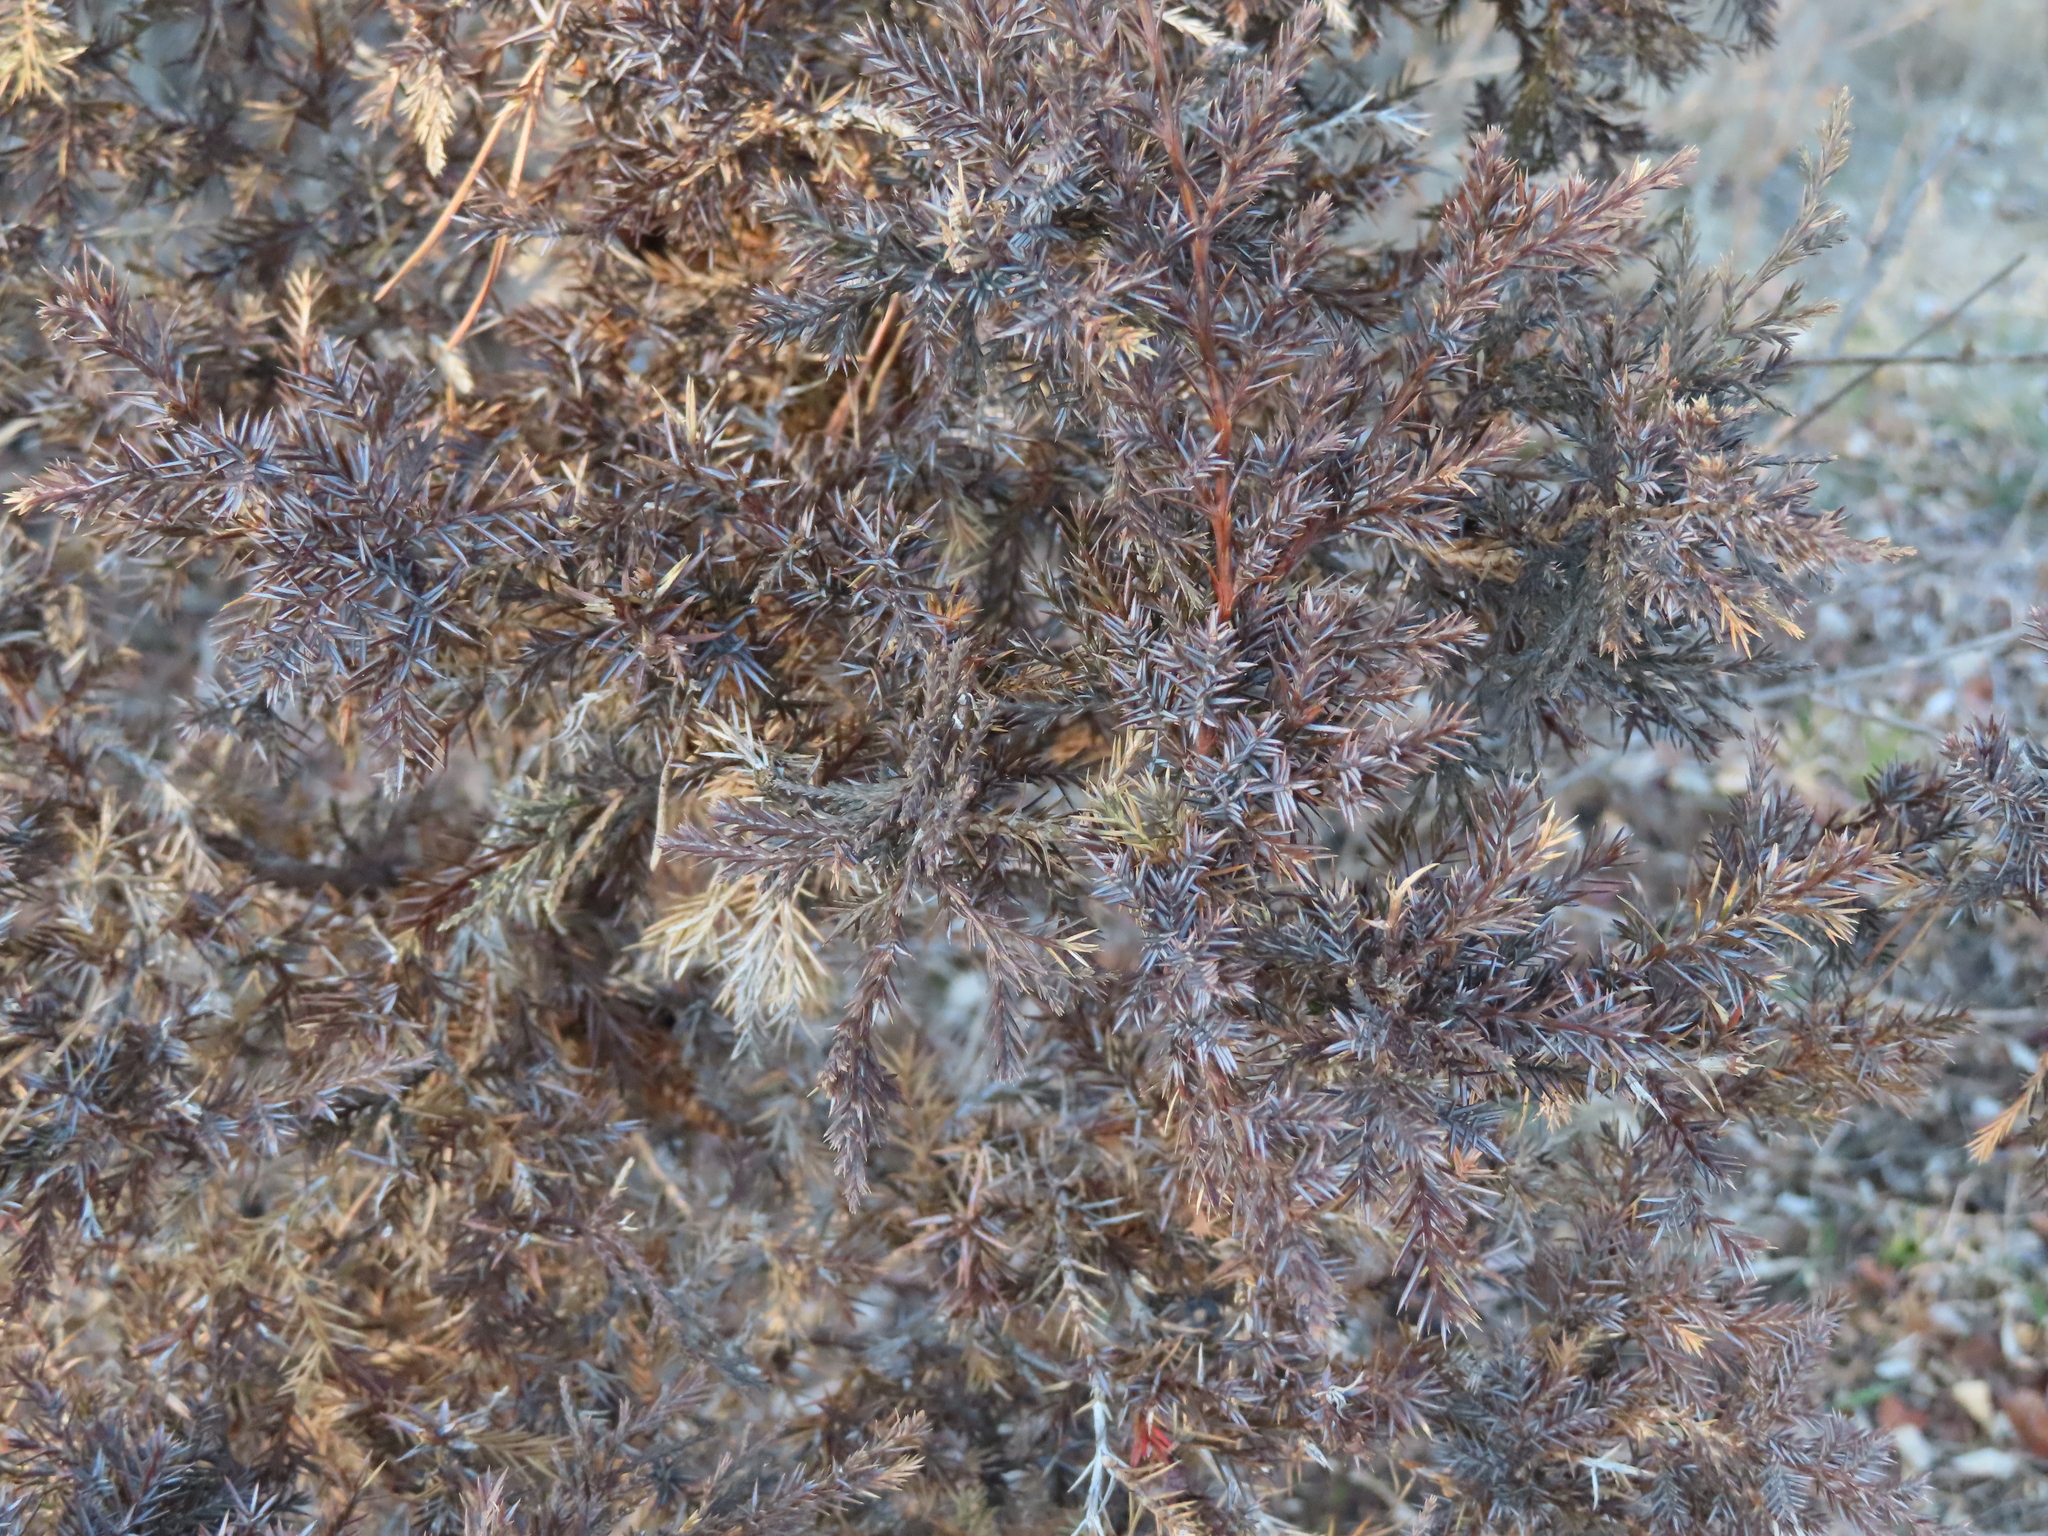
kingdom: Plantae
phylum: Tracheophyta
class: Pinopsida
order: Pinales
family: Cupressaceae
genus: Juniperus
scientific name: Juniperus virginiana
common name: Red juniper
